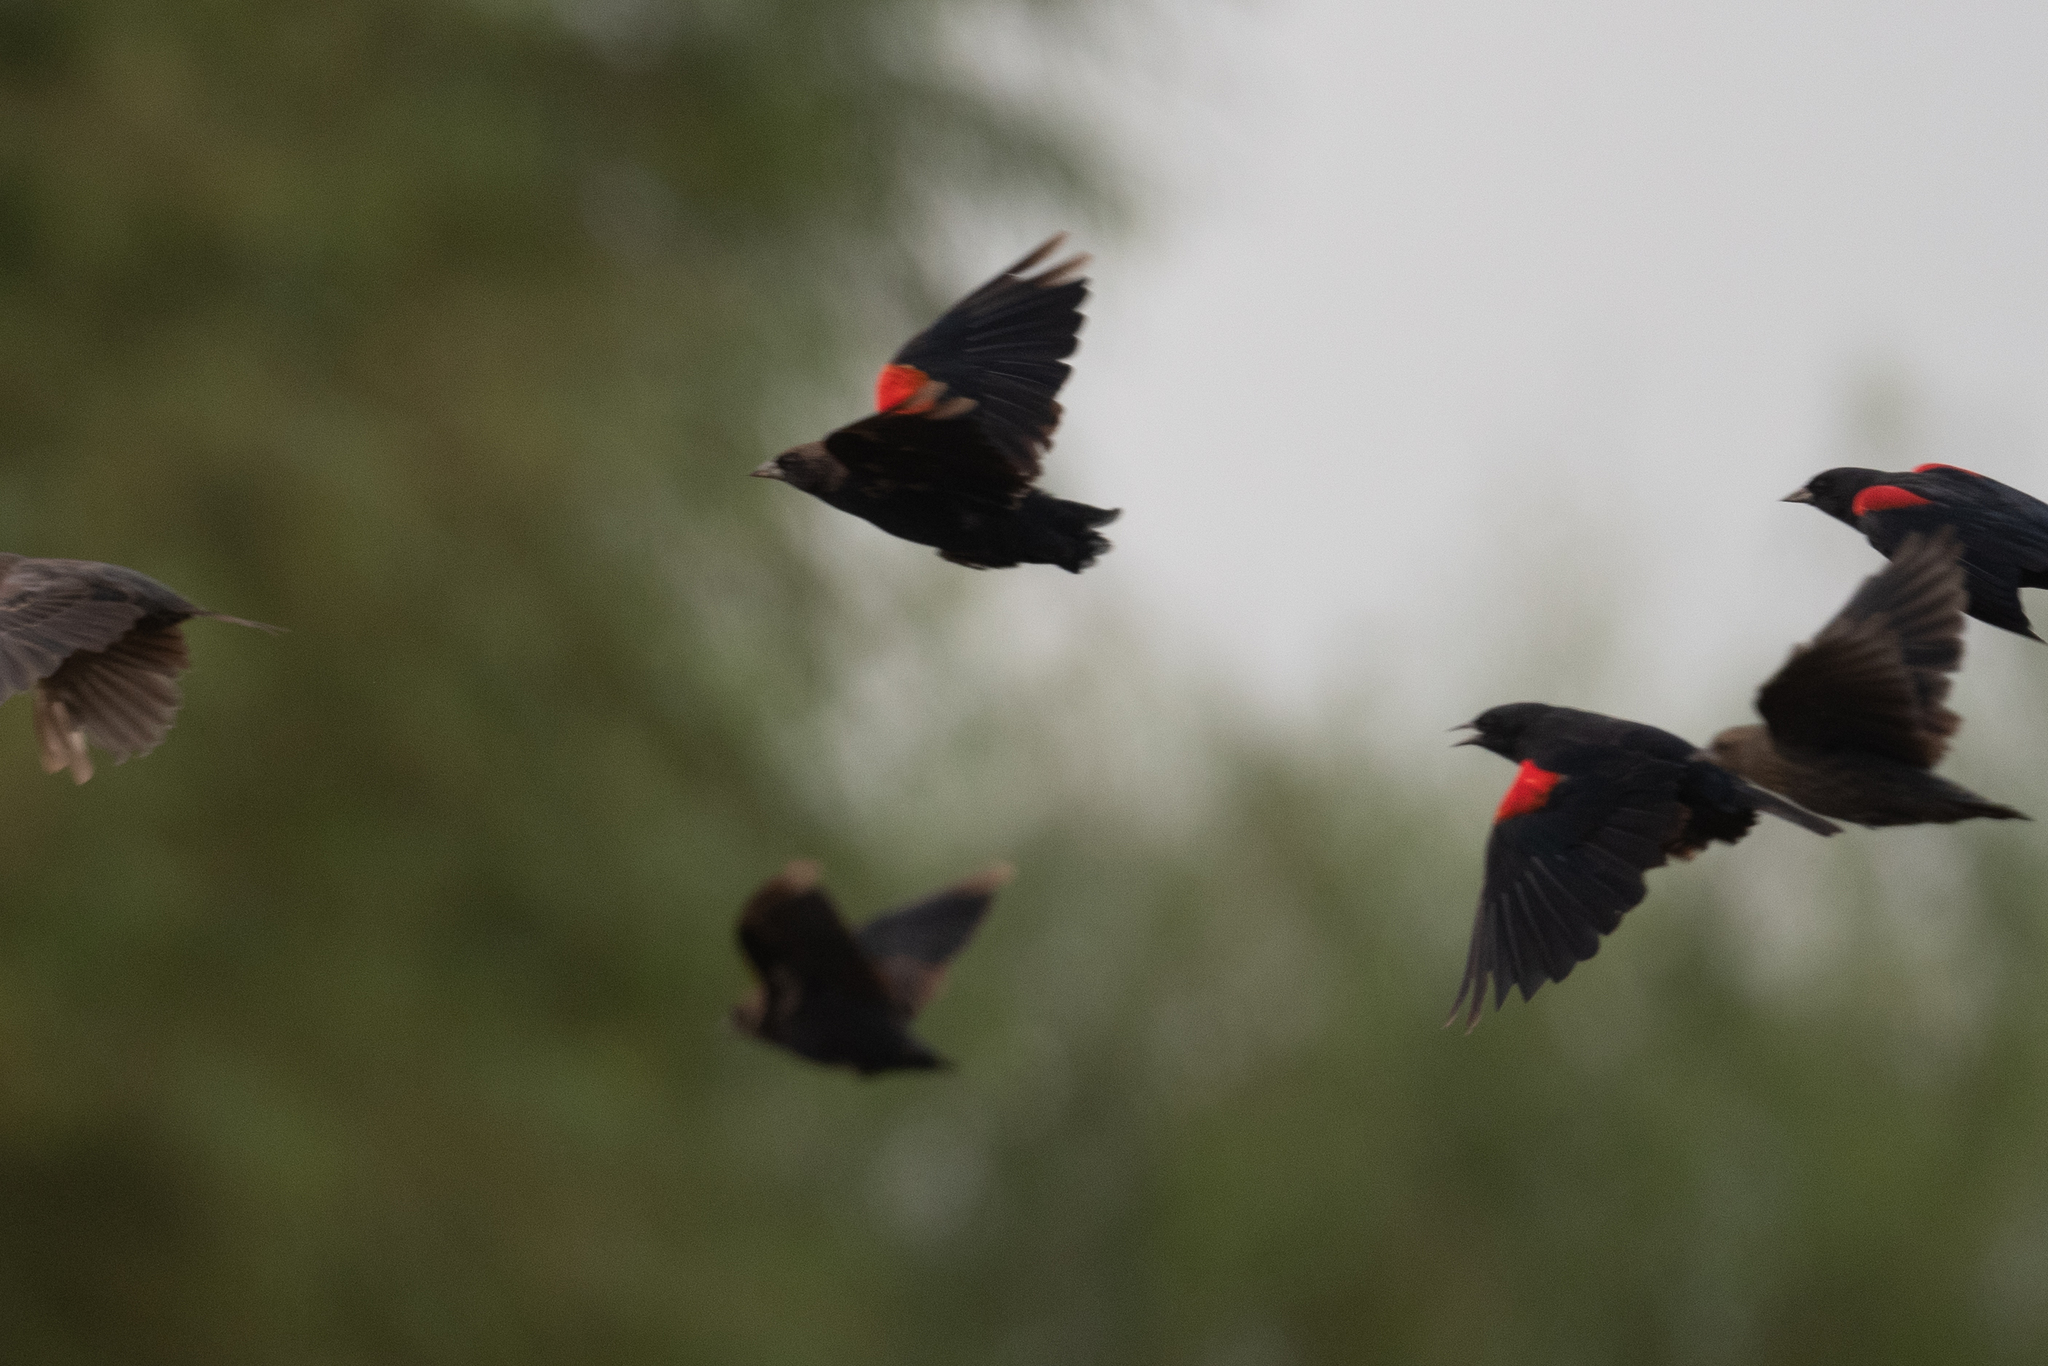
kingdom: Animalia
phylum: Chordata
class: Aves
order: Passeriformes
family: Icteridae
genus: Agelaius
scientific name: Agelaius tricolor
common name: Tricolored blackbird
